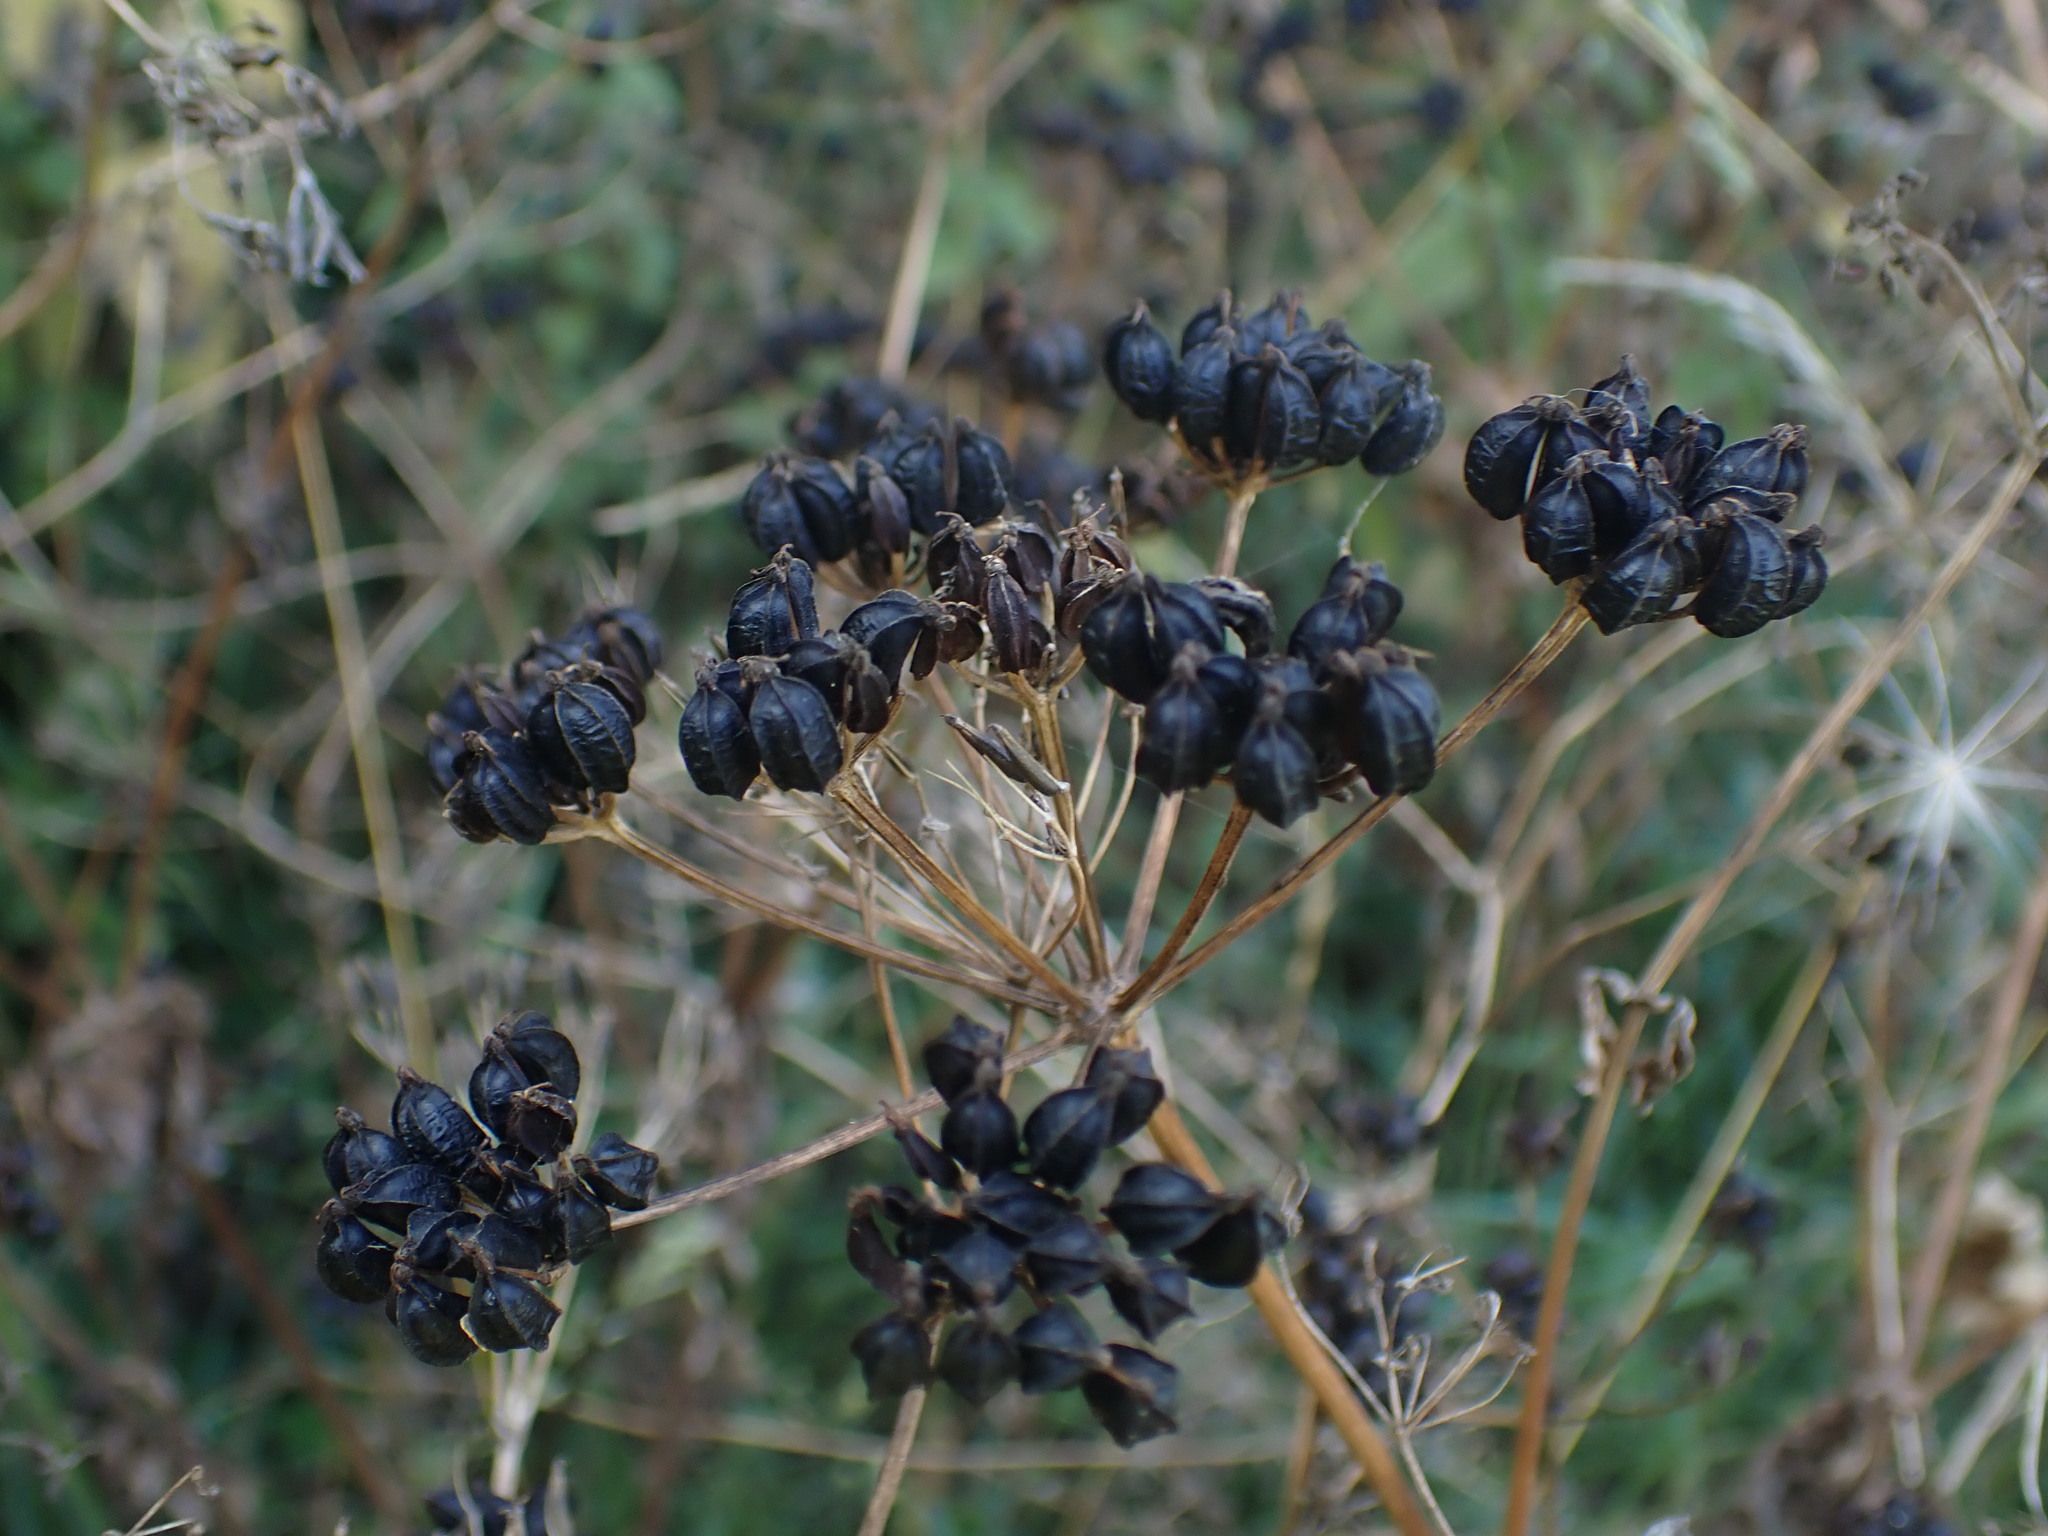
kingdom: Plantae
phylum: Tracheophyta
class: Magnoliopsida
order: Apiales
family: Apiaceae
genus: Smyrnium
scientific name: Smyrnium olusatrum
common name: Alexanders
